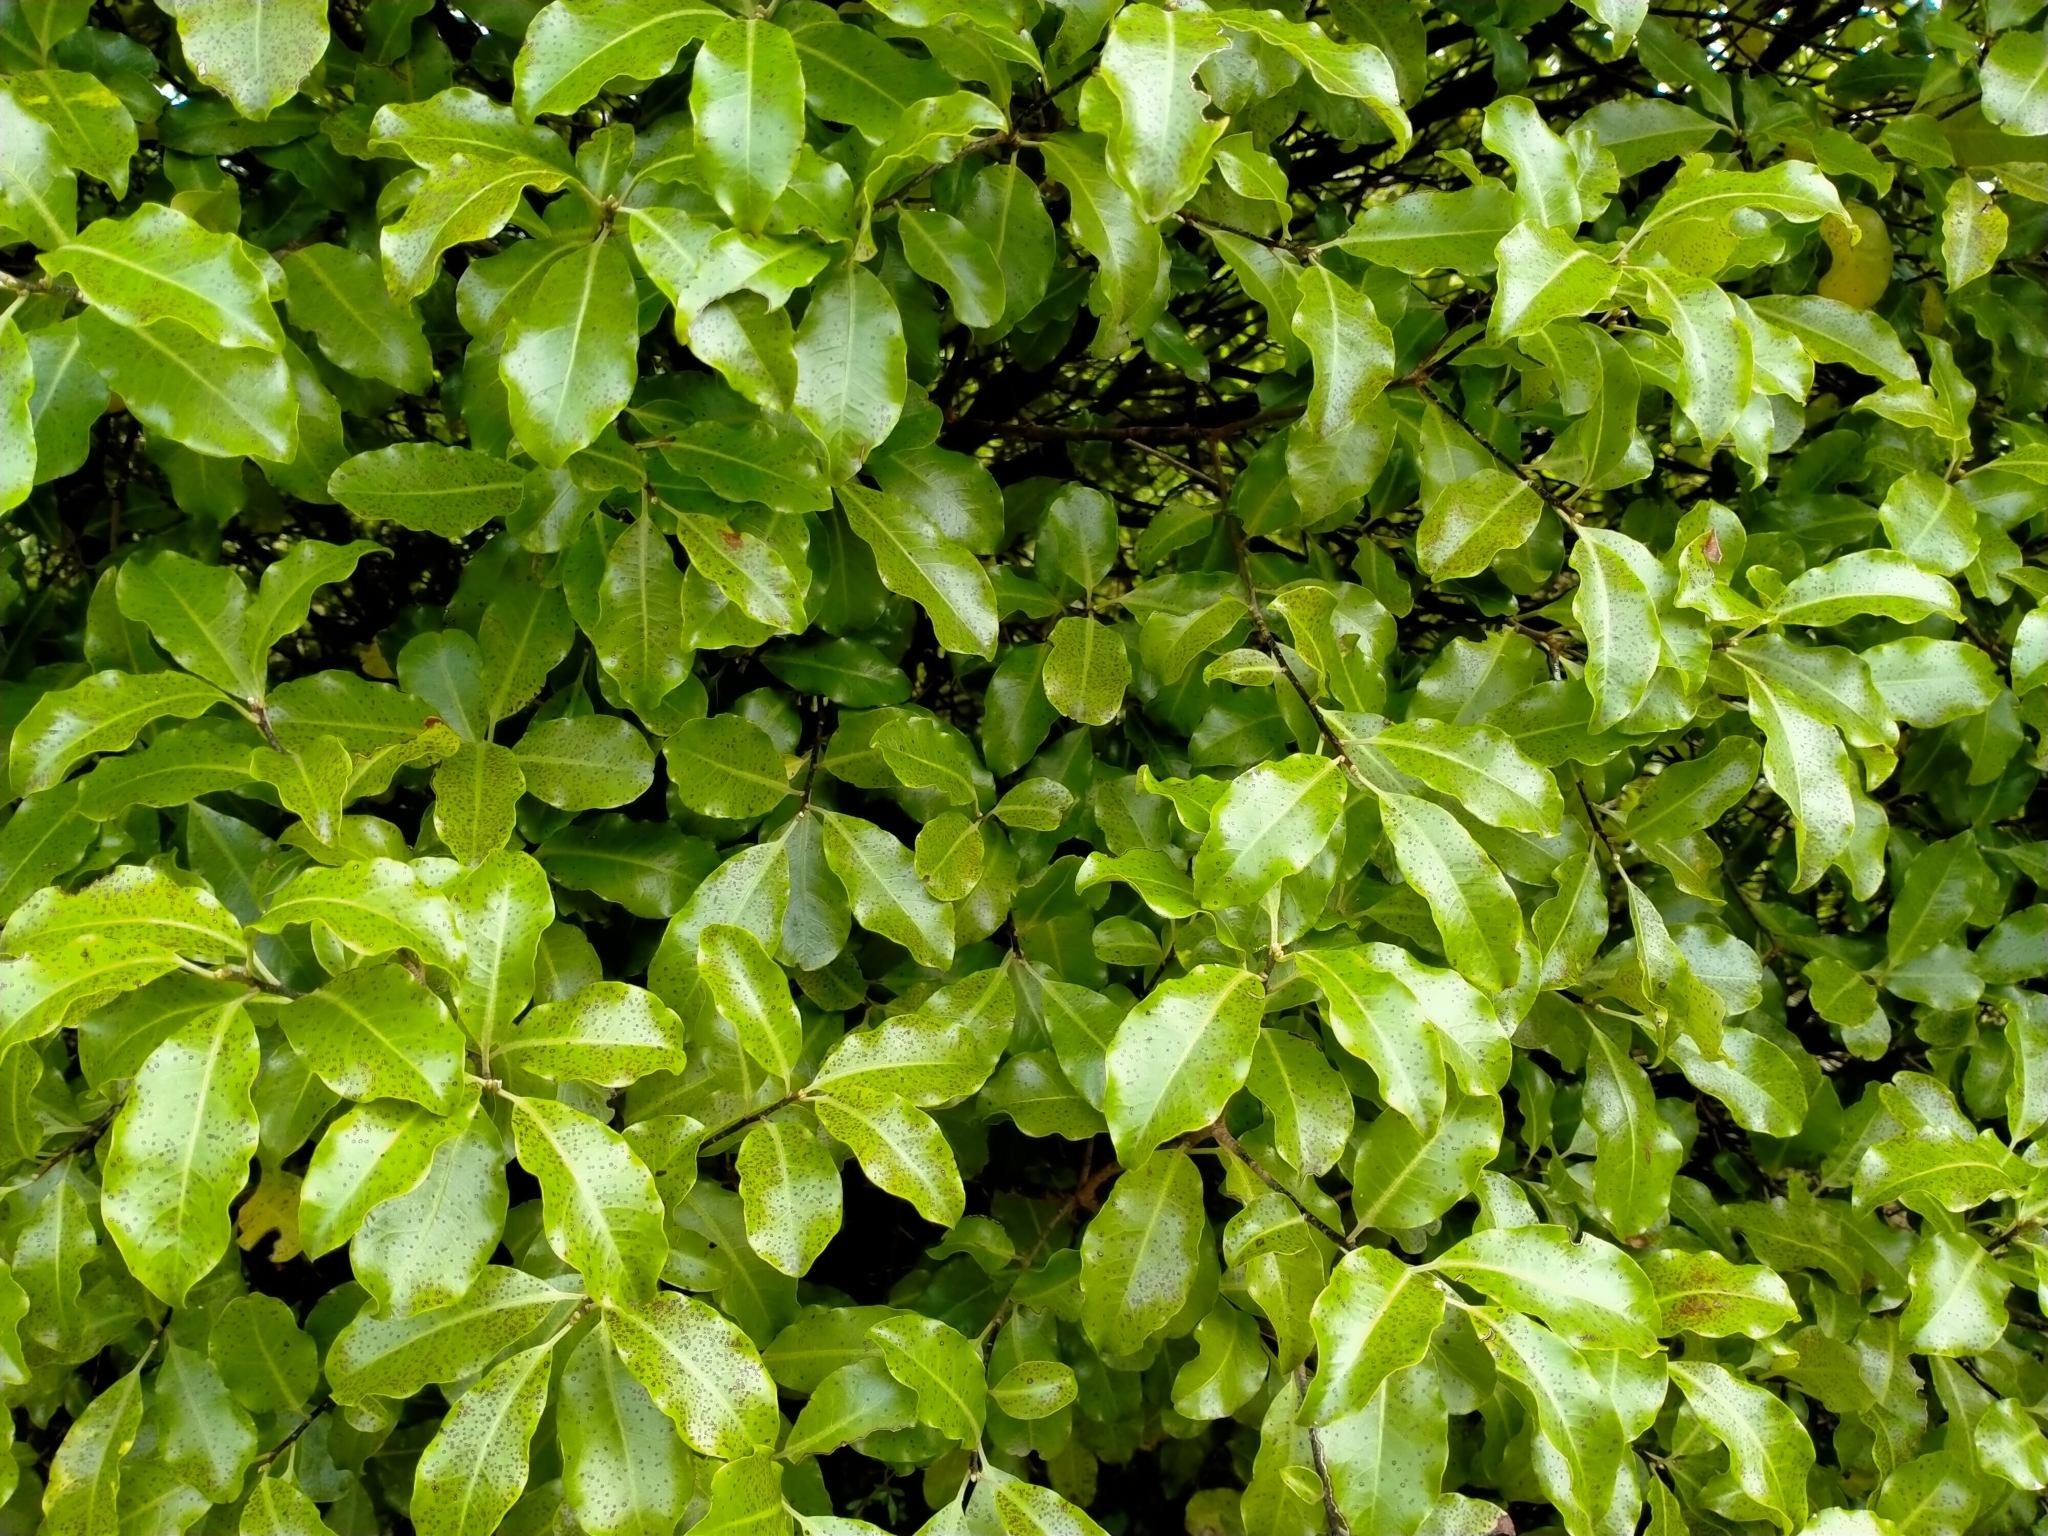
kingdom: Plantae
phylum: Tracheophyta
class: Magnoliopsida
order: Apiales
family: Pittosporaceae
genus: Pittosporum
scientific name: Pittosporum tenuifolium
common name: Kohuhu
